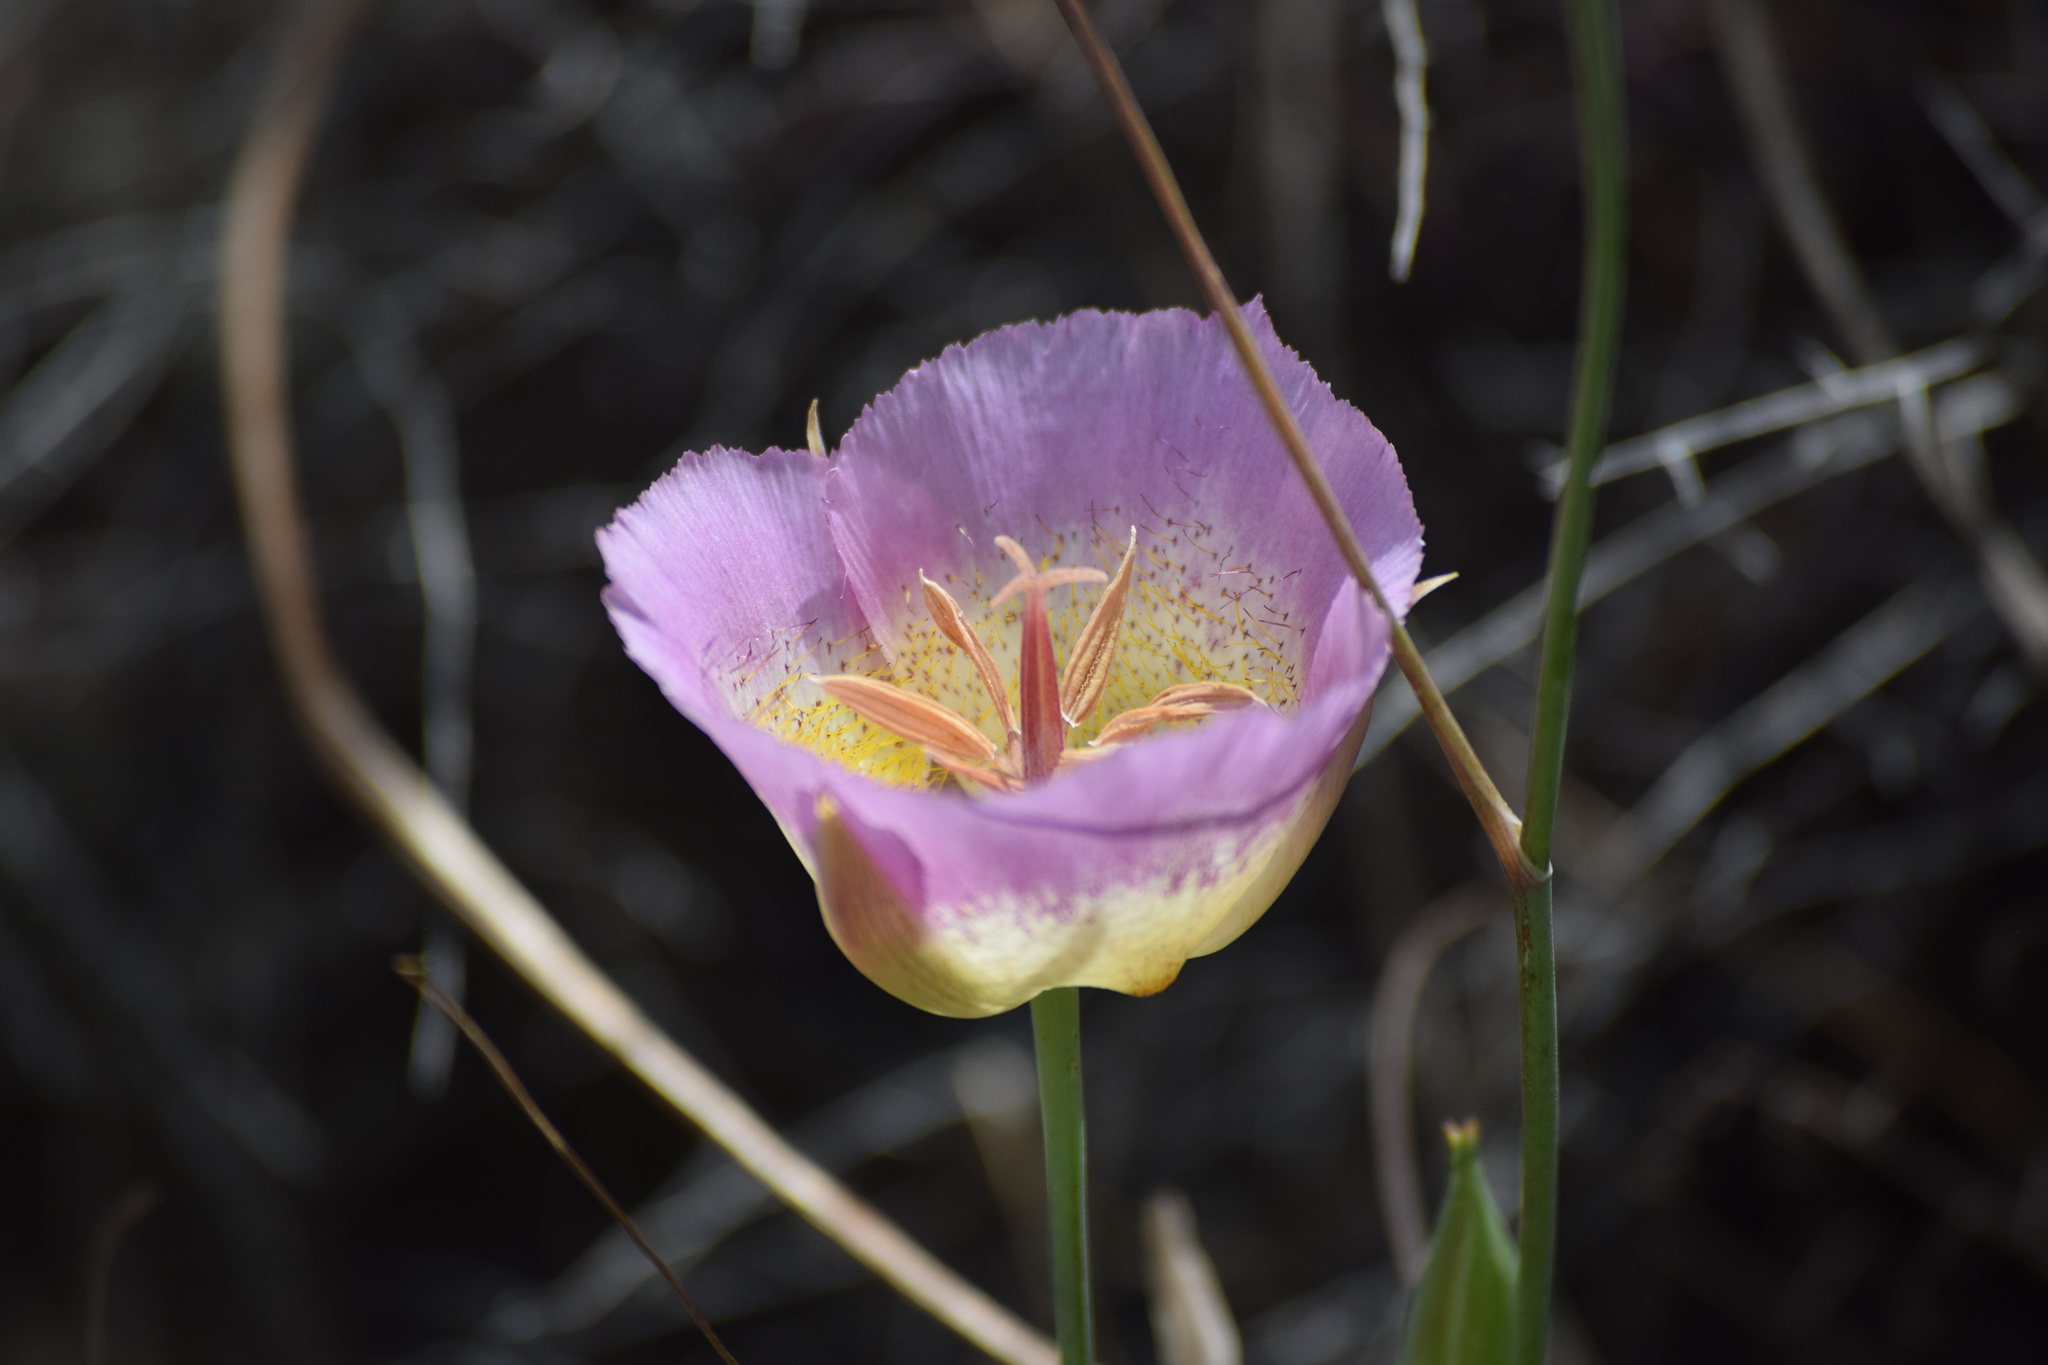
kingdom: Plantae
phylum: Tracheophyta
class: Liliopsida
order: Liliales
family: Liliaceae
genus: Calochortus
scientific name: Calochortus plummerae
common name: Plummer's mariposa-lily
